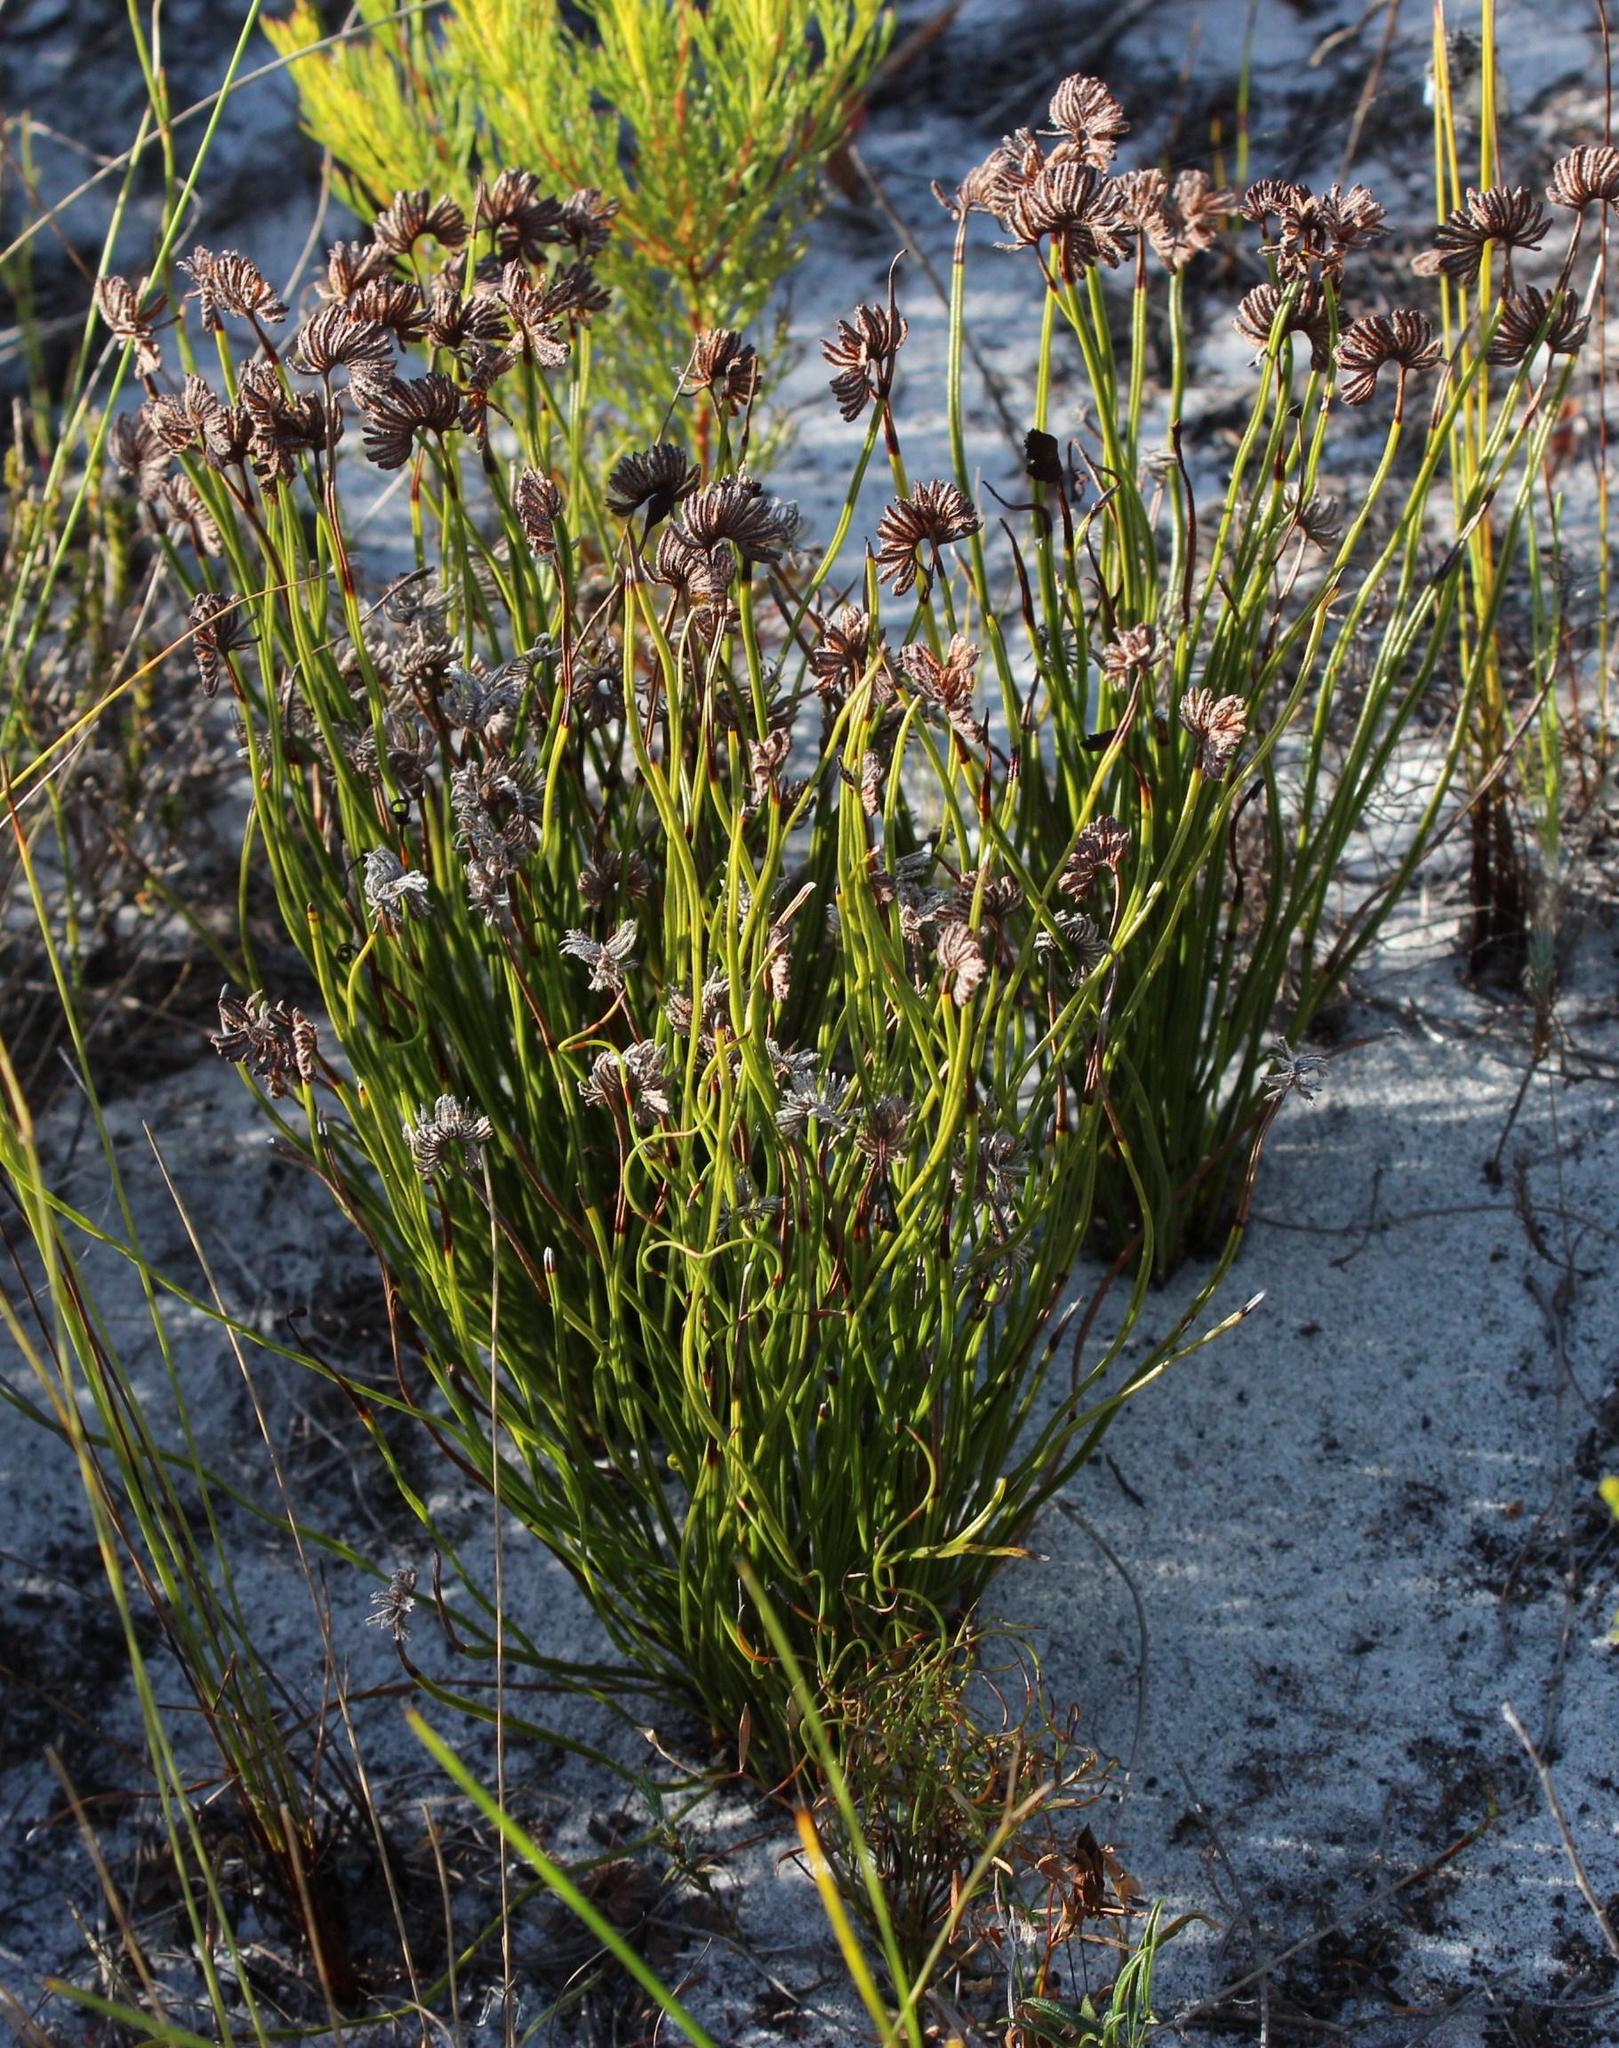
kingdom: Plantae
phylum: Tracheophyta
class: Polypodiopsida
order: Schizaeales
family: Schizaeaceae
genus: Schizaea
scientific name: Schizaea pectinata
